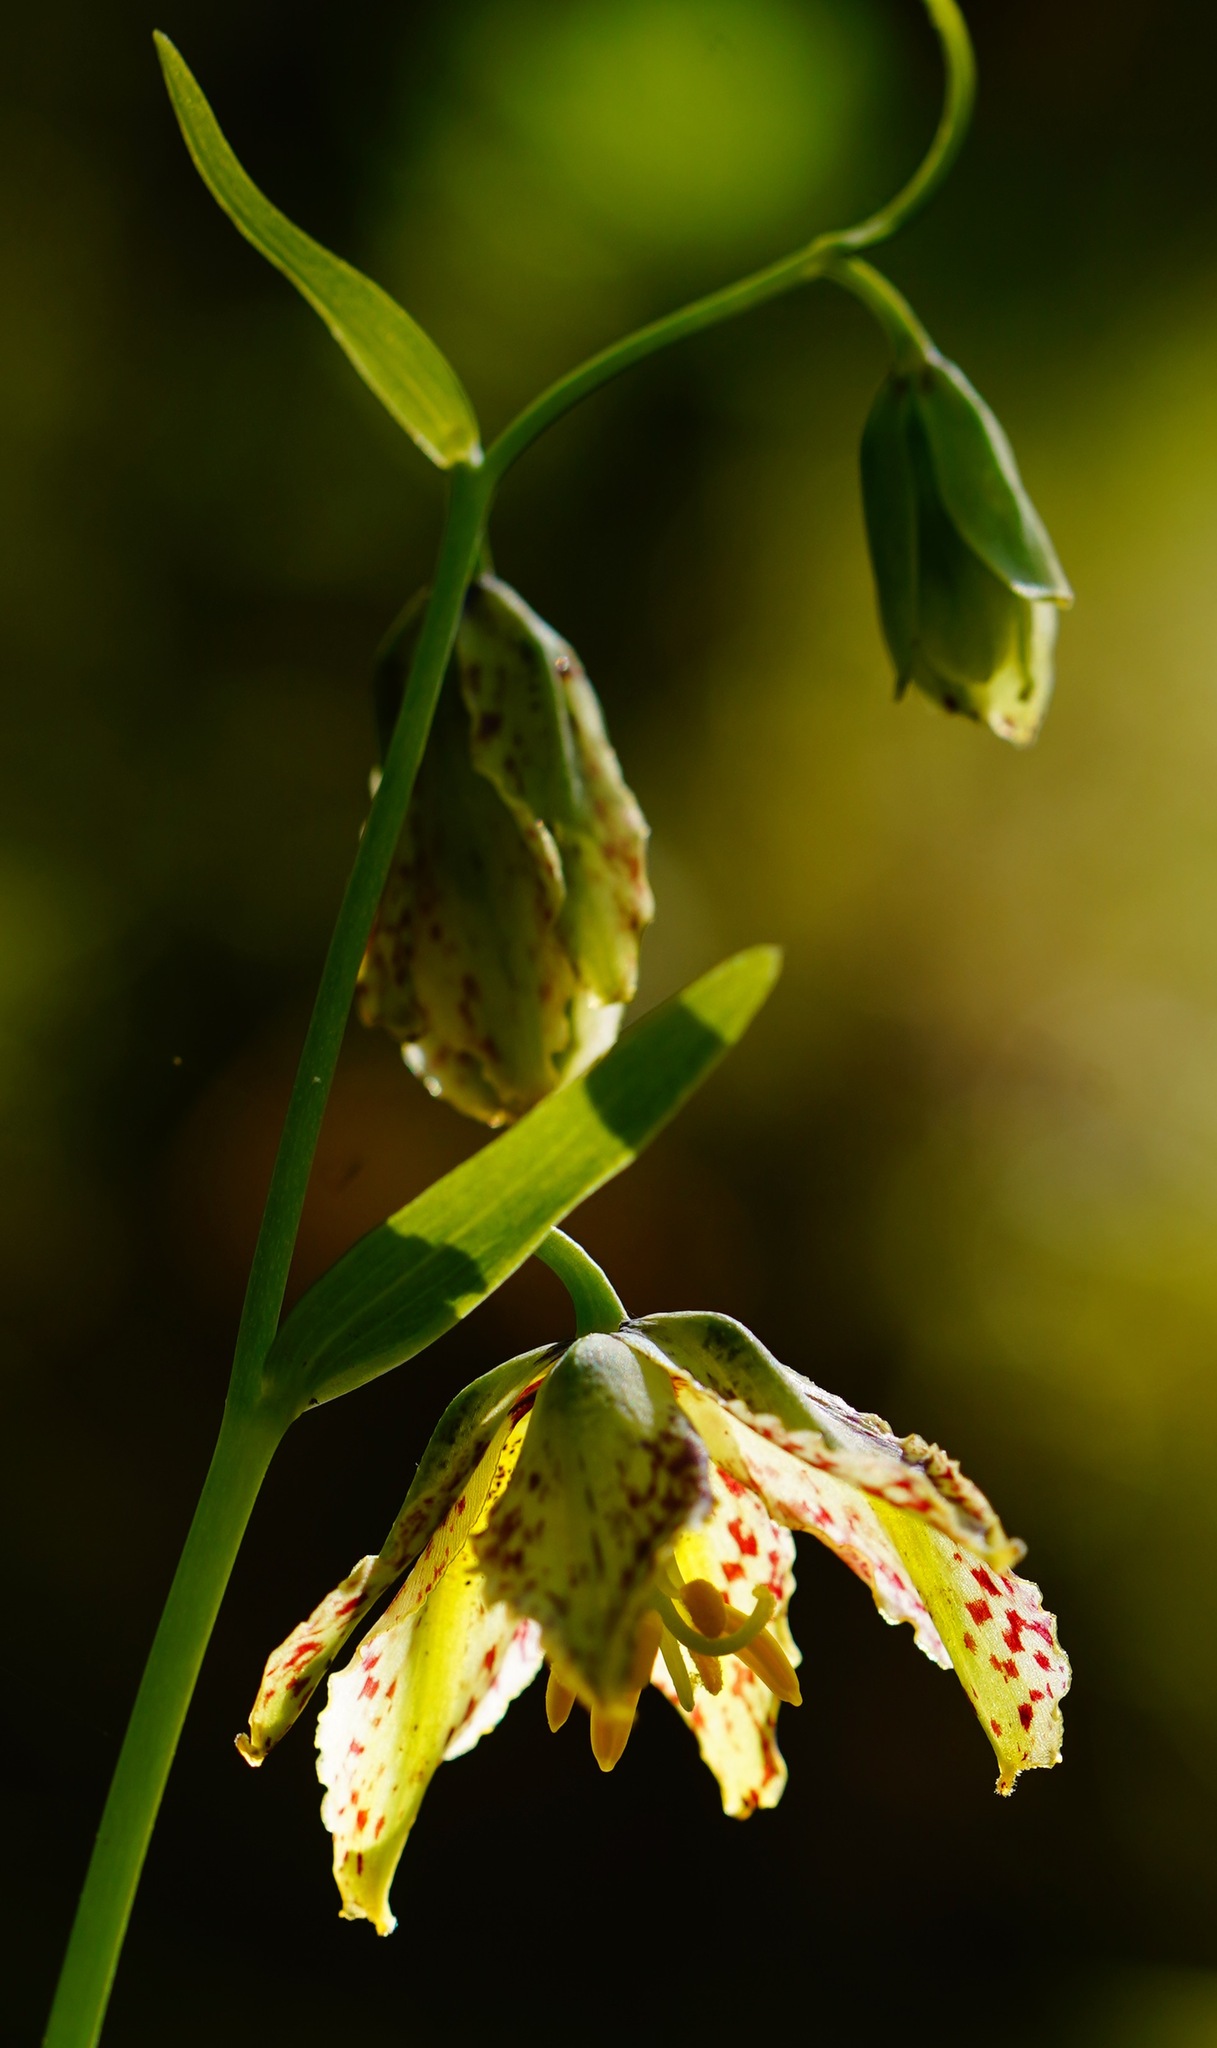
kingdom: Plantae
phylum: Tracheophyta
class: Liliopsida
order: Liliales
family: Liliaceae
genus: Fritillaria
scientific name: Fritillaria affinis
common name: Ojai fritillary
